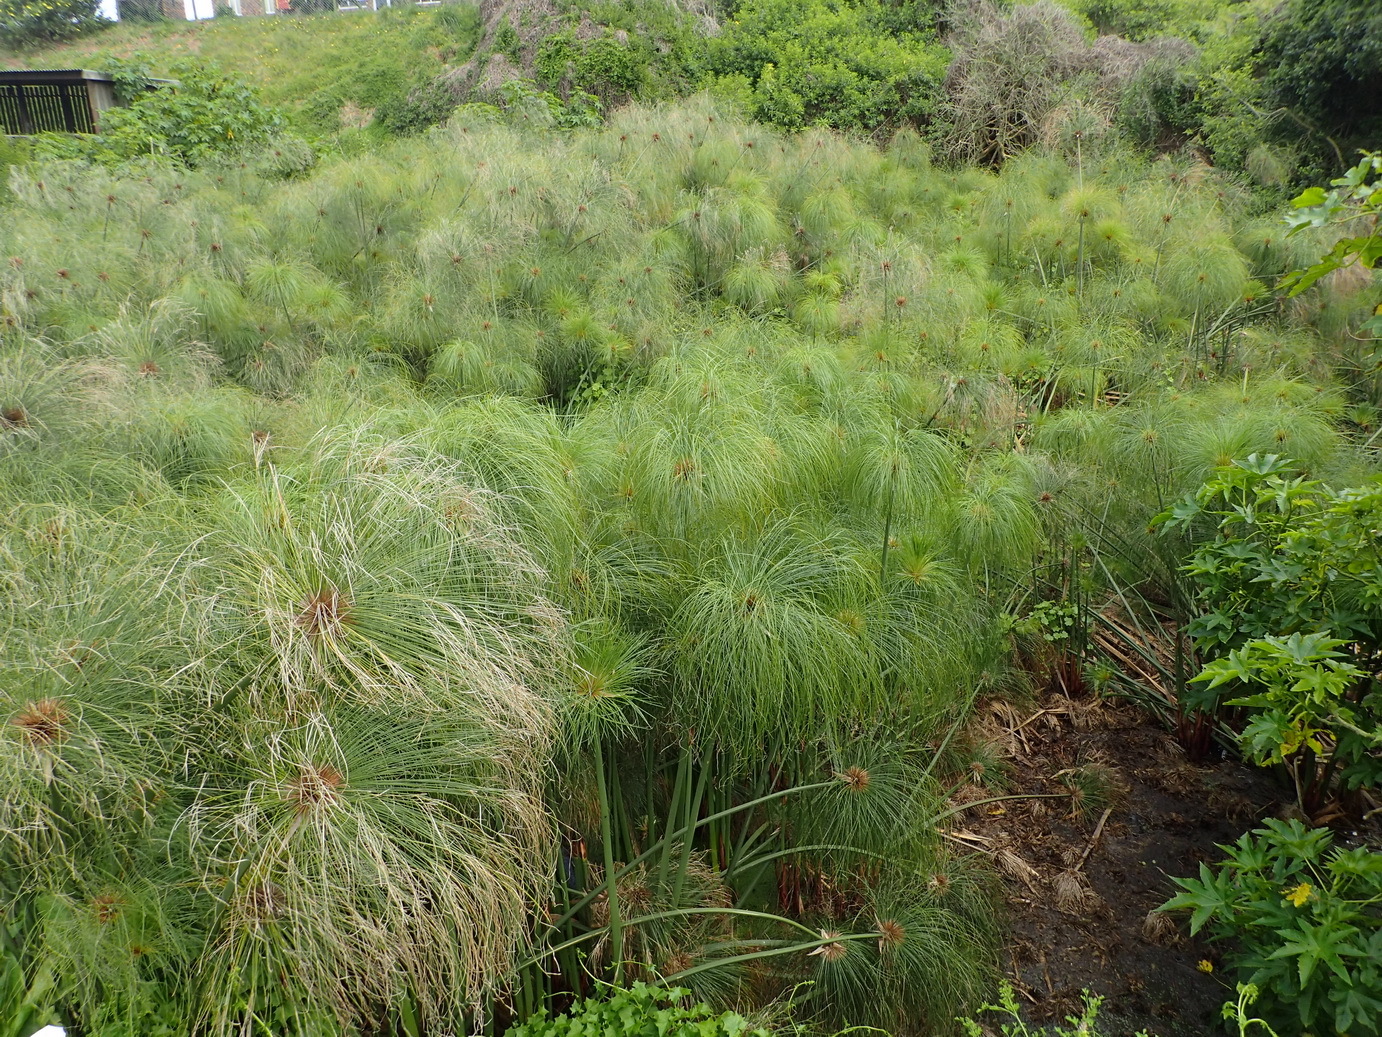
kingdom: Plantae
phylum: Tracheophyta
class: Liliopsida
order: Poales
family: Cyperaceae
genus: Cyperus
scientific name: Cyperus papyrus
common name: Papyrus
